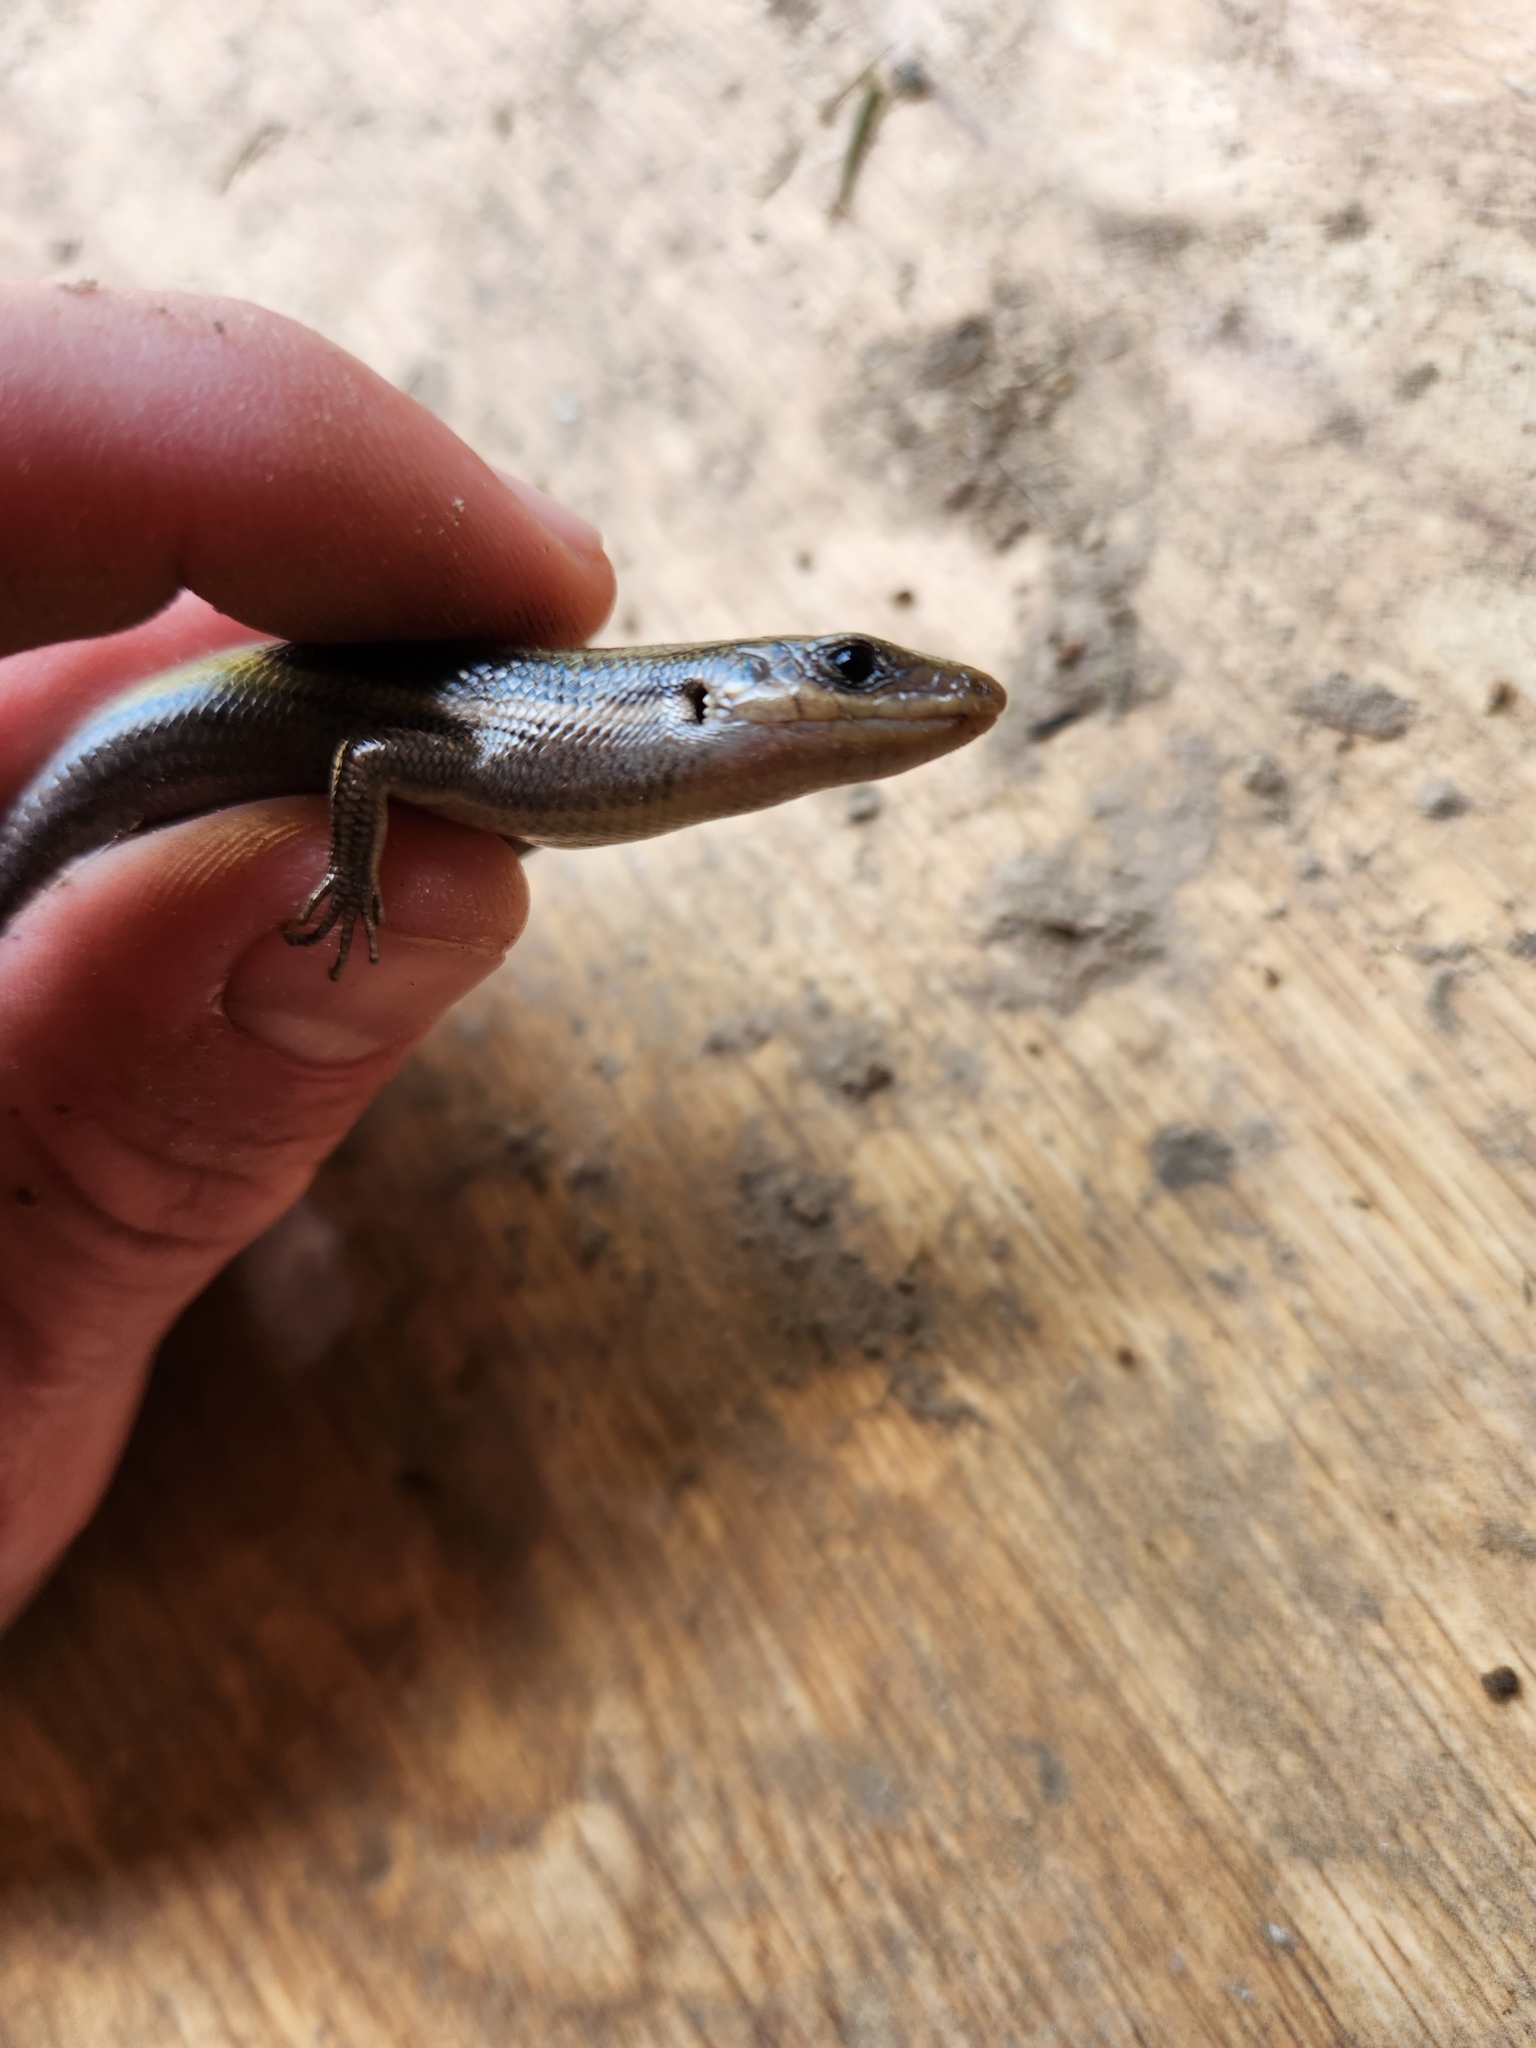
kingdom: Animalia
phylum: Chordata
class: Squamata
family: Scincidae
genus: Plestiodon
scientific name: Plestiodon fasciatus
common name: Five-lined skink
